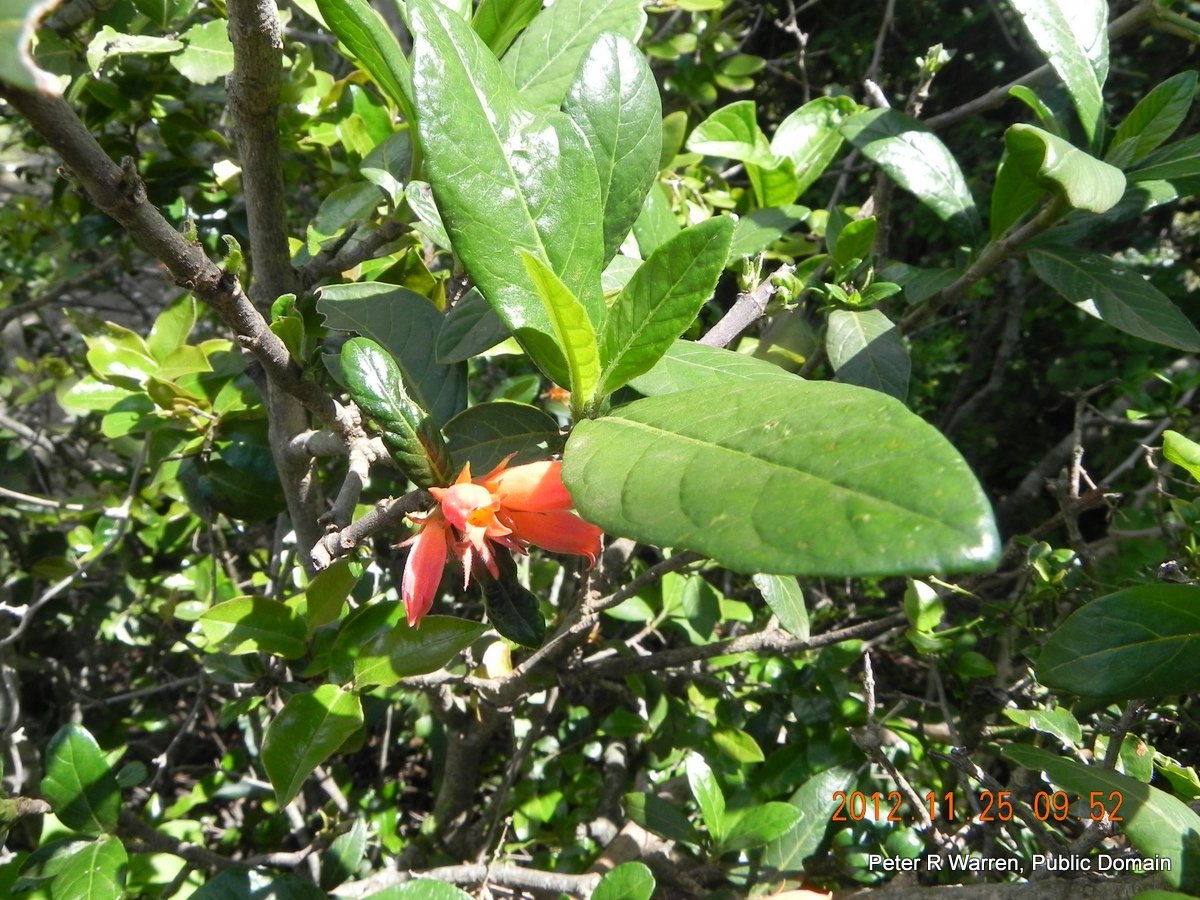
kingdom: Plantae
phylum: Tracheophyta
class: Magnoliopsida
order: Gentianales
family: Rubiaceae
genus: Burchellia
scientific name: Burchellia bubalina
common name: Wild pomegranate
